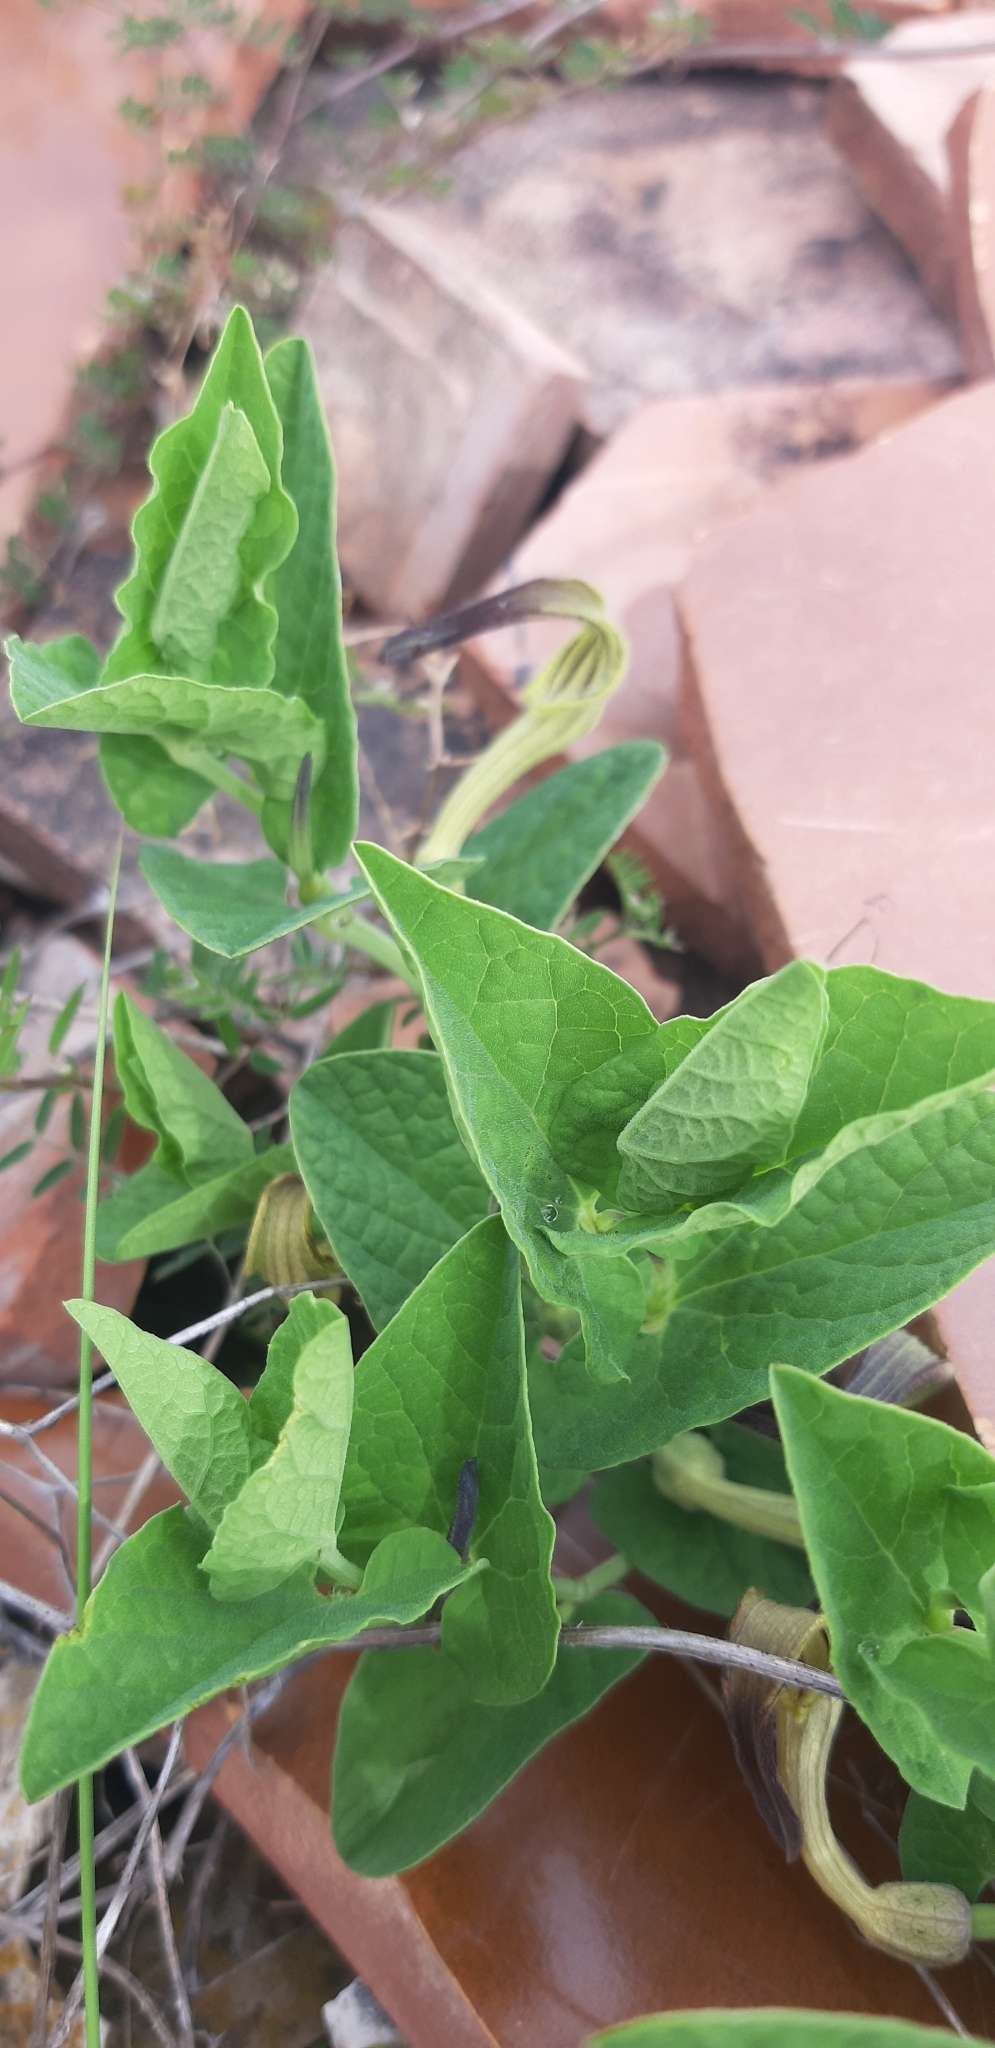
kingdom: Plantae
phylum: Tracheophyta
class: Magnoliopsida
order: Piperales
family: Aristolochiaceae
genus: Aristolochia
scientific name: Aristolochia clusii
